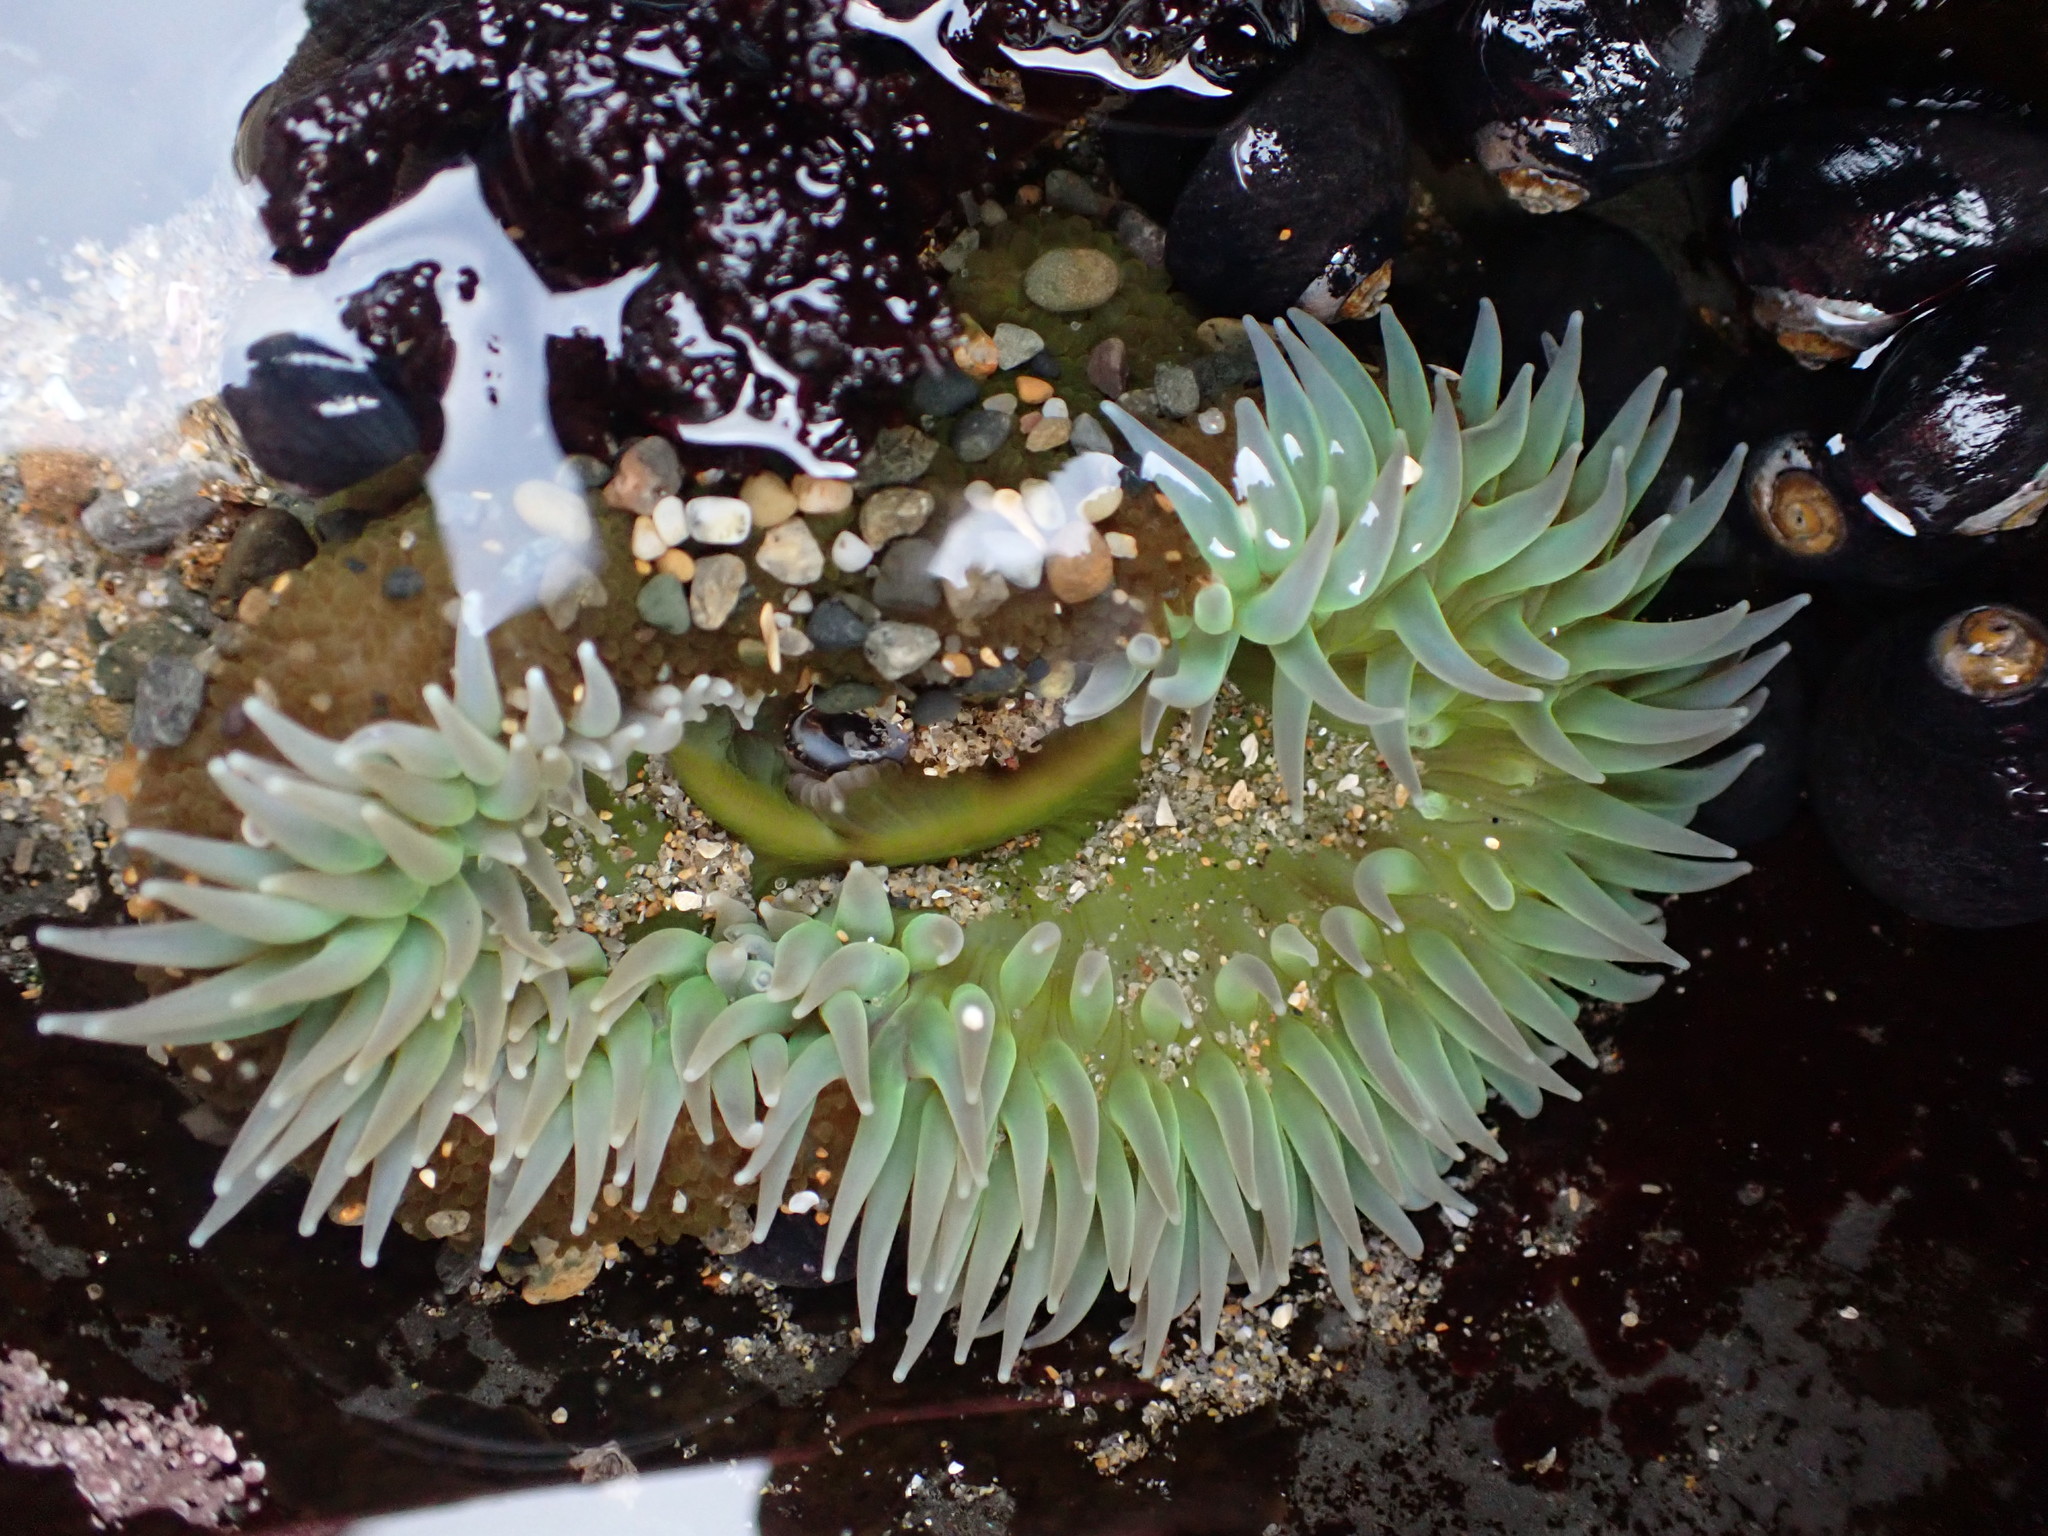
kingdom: Animalia
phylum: Cnidaria
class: Anthozoa
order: Actiniaria
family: Actiniidae
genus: Anthopleura
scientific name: Anthopleura xanthogrammica
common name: Giant green anemone
